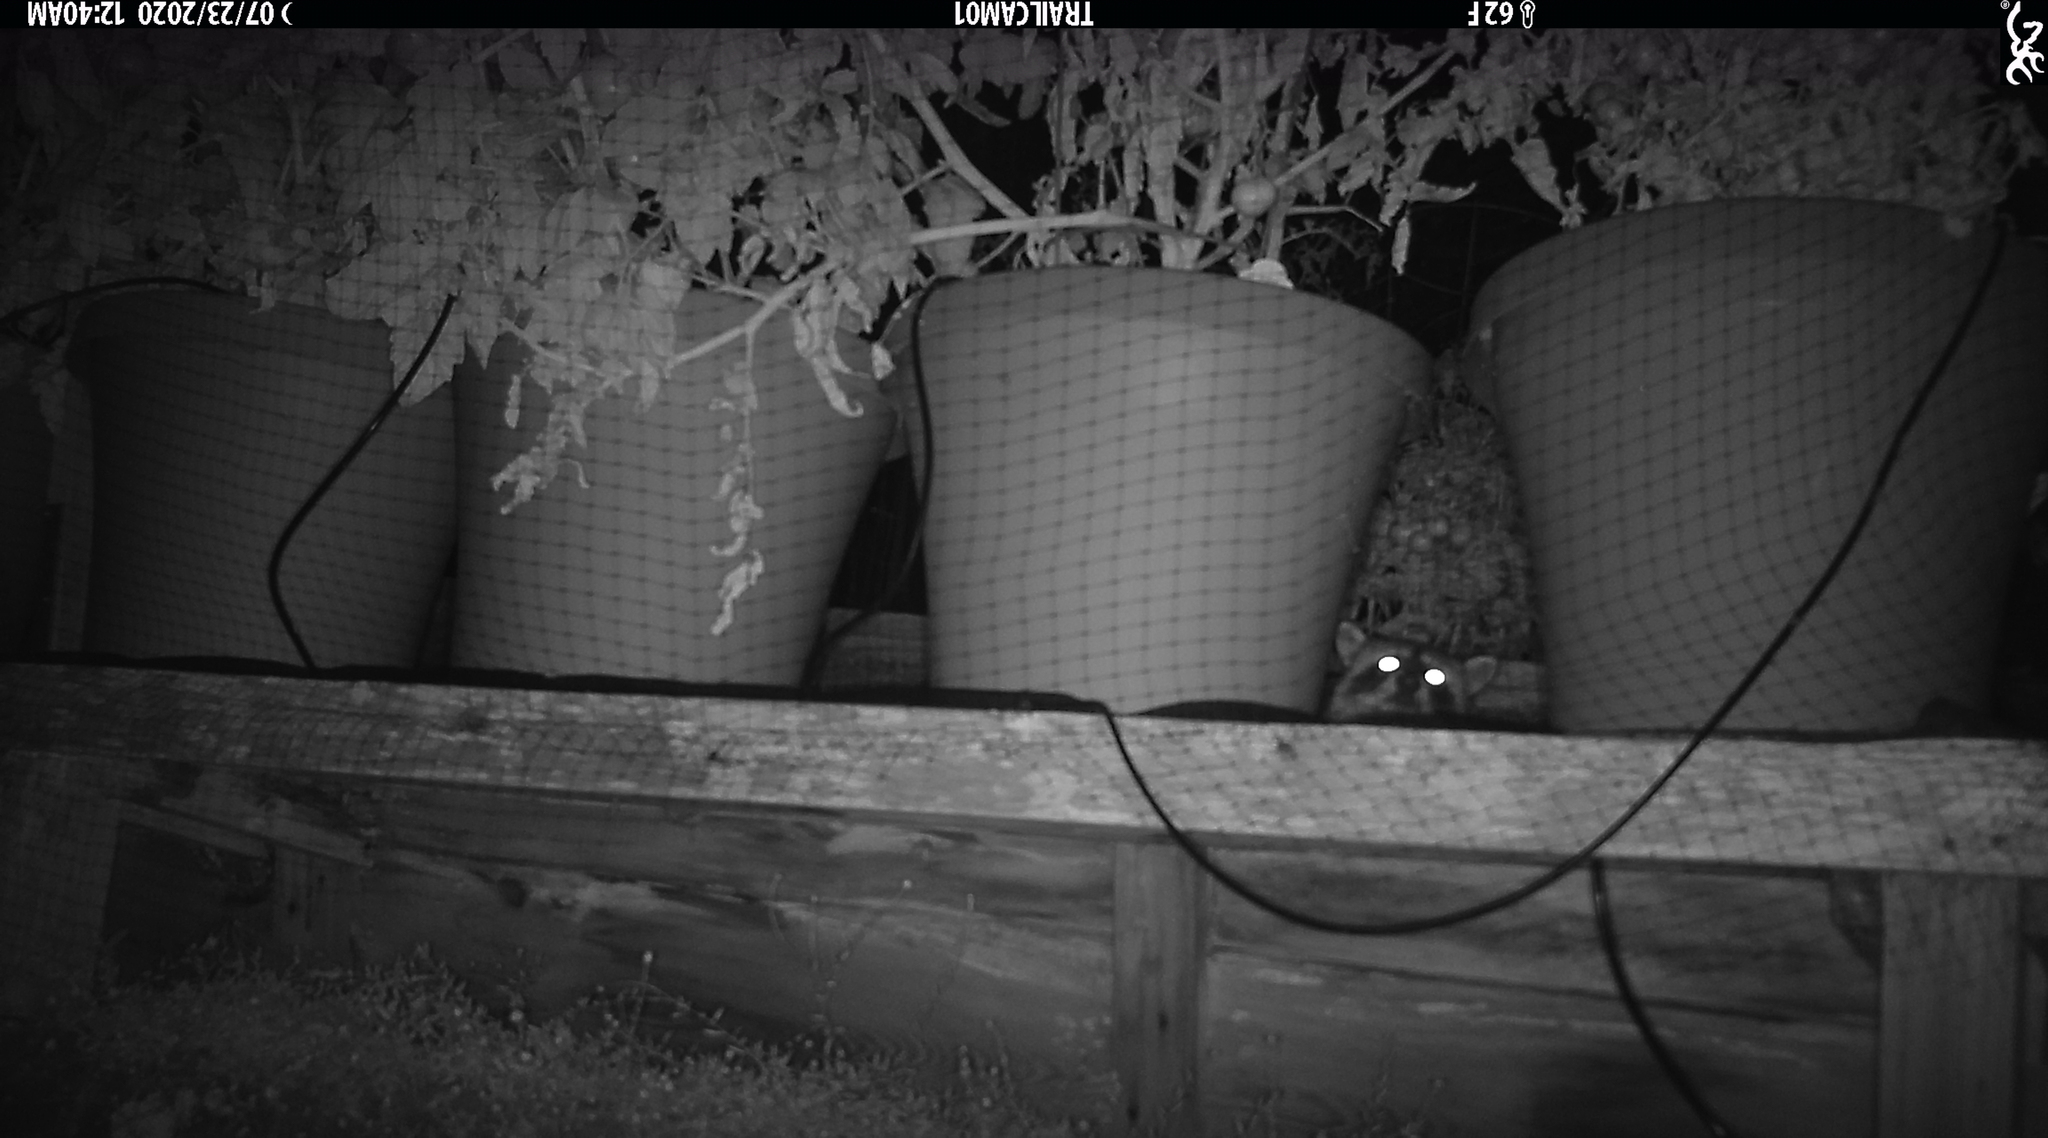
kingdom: Animalia
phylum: Chordata
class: Mammalia
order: Carnivora
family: Procyonidae
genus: Procyon
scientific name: Procyon lotor
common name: Raccoon
